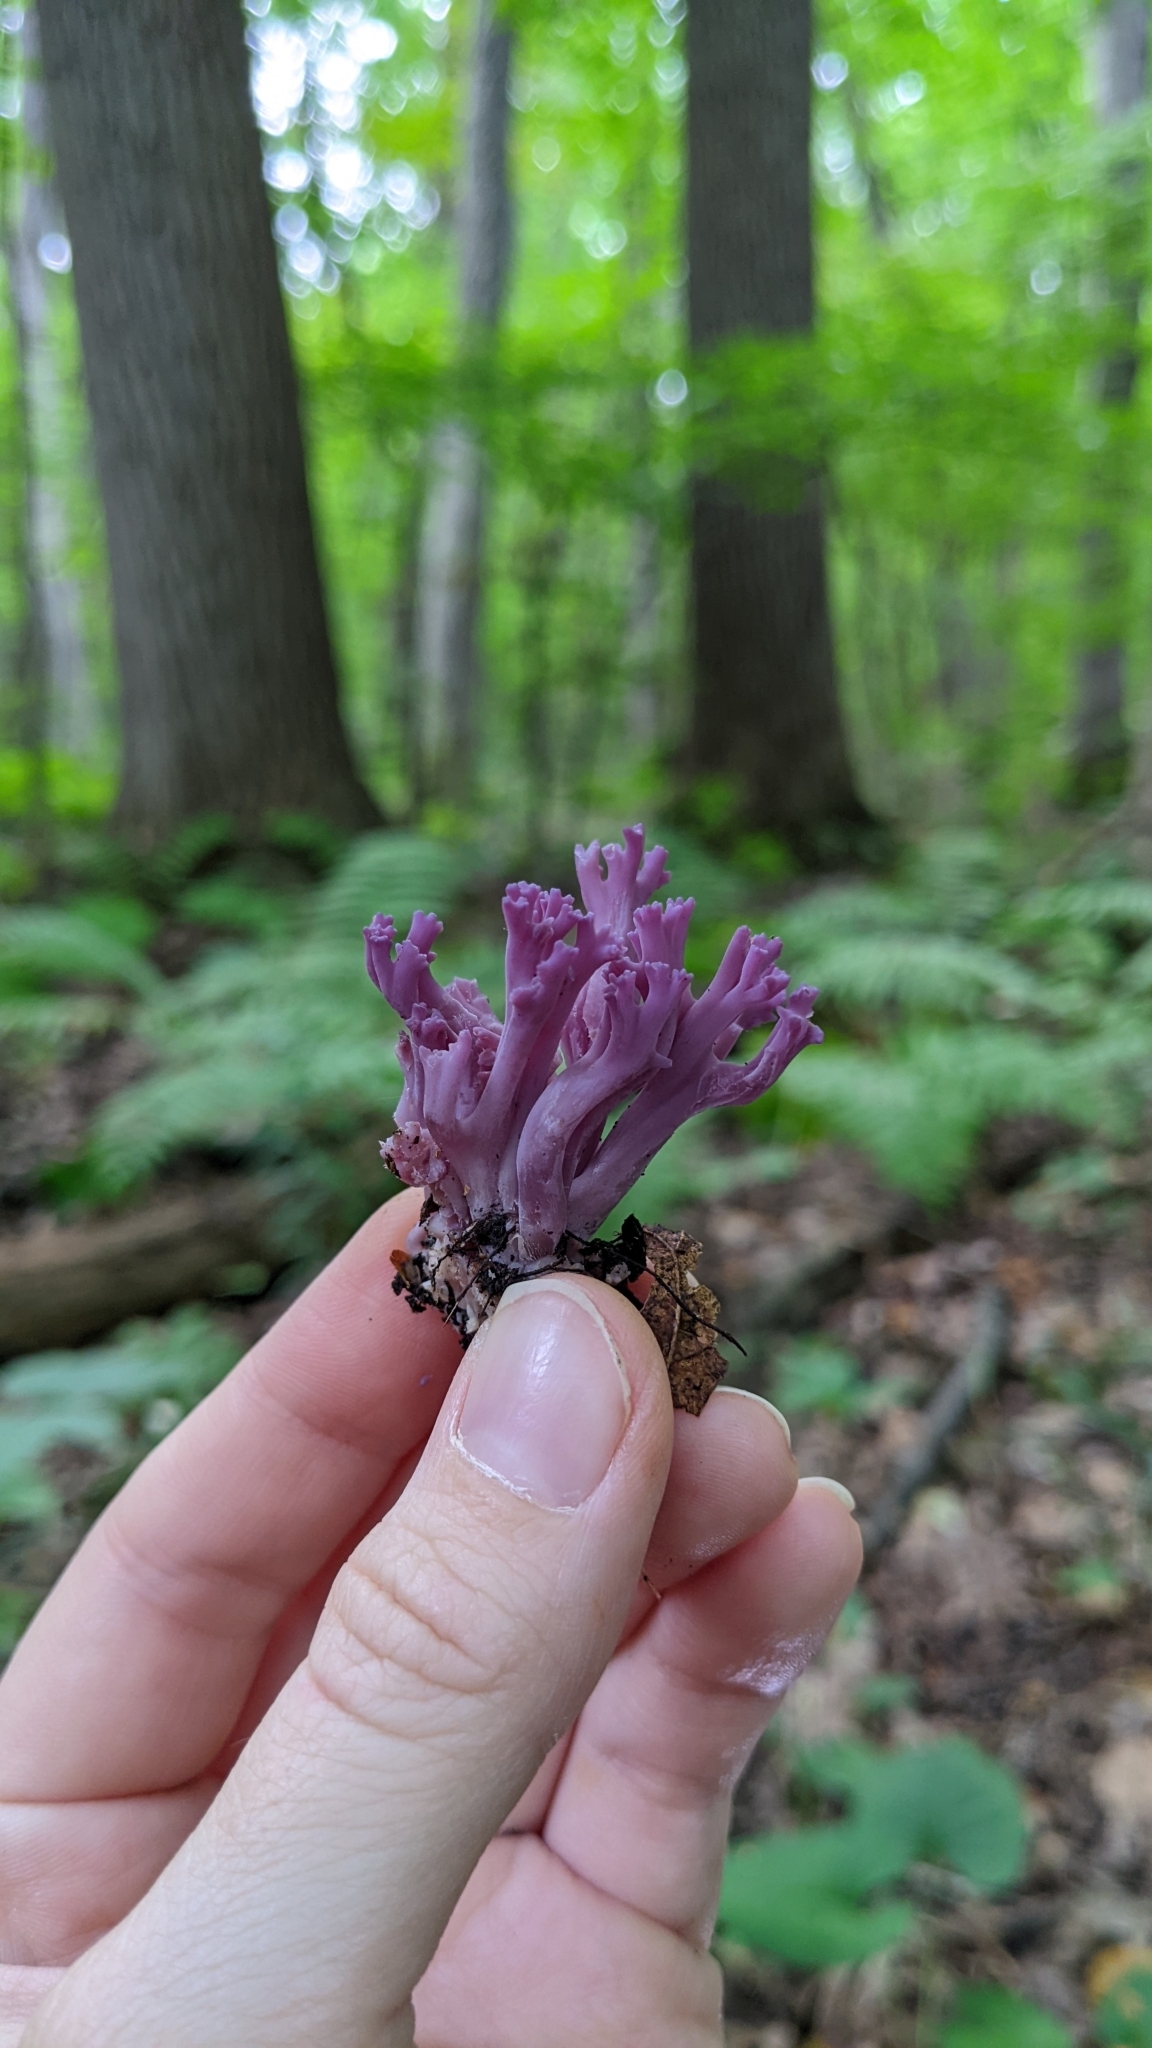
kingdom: Fungi
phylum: Basidiomycota
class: Agaricomycetes
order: Agaricales
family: Clavariaceae
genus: Clavaria
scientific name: Clavaria zollingeri
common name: Violet coral
